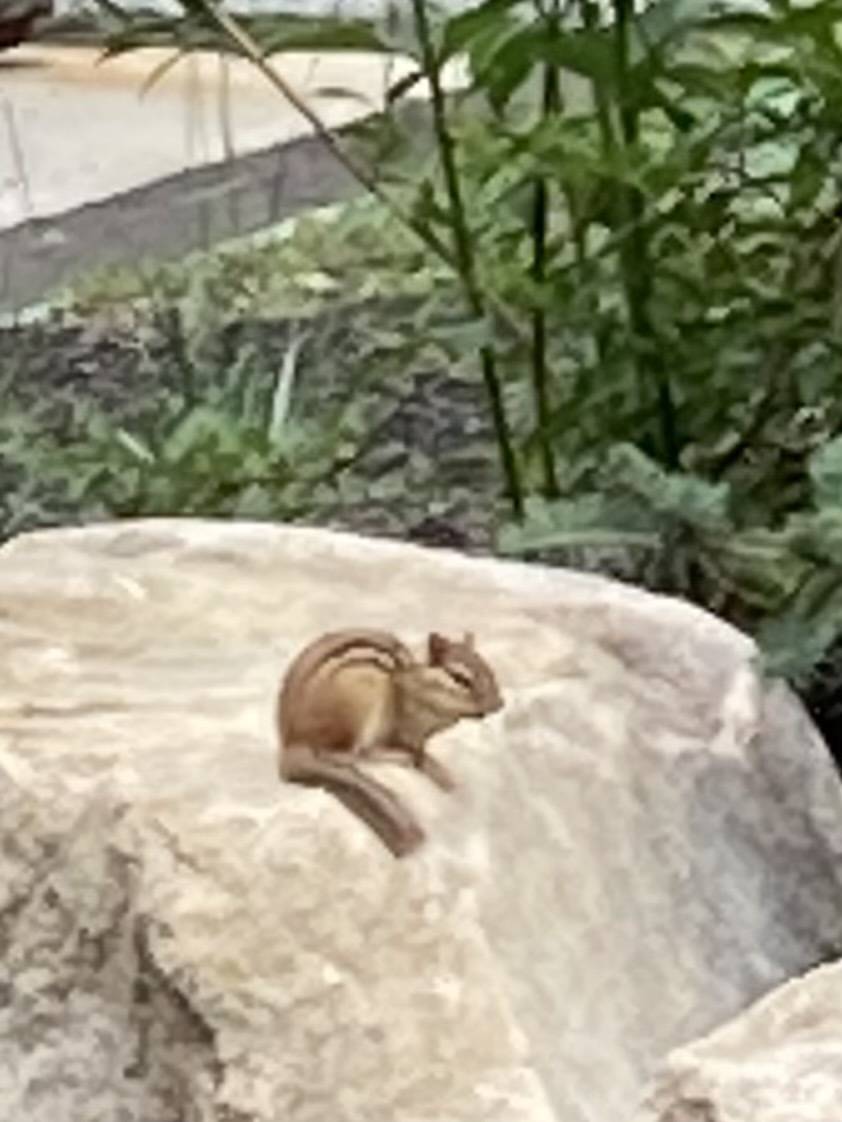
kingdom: Animalia
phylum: Chordata
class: Mammalia
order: Rodentia
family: Sciuridae
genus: Tamias
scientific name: Tamias striatus
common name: Eastern chipmunk
